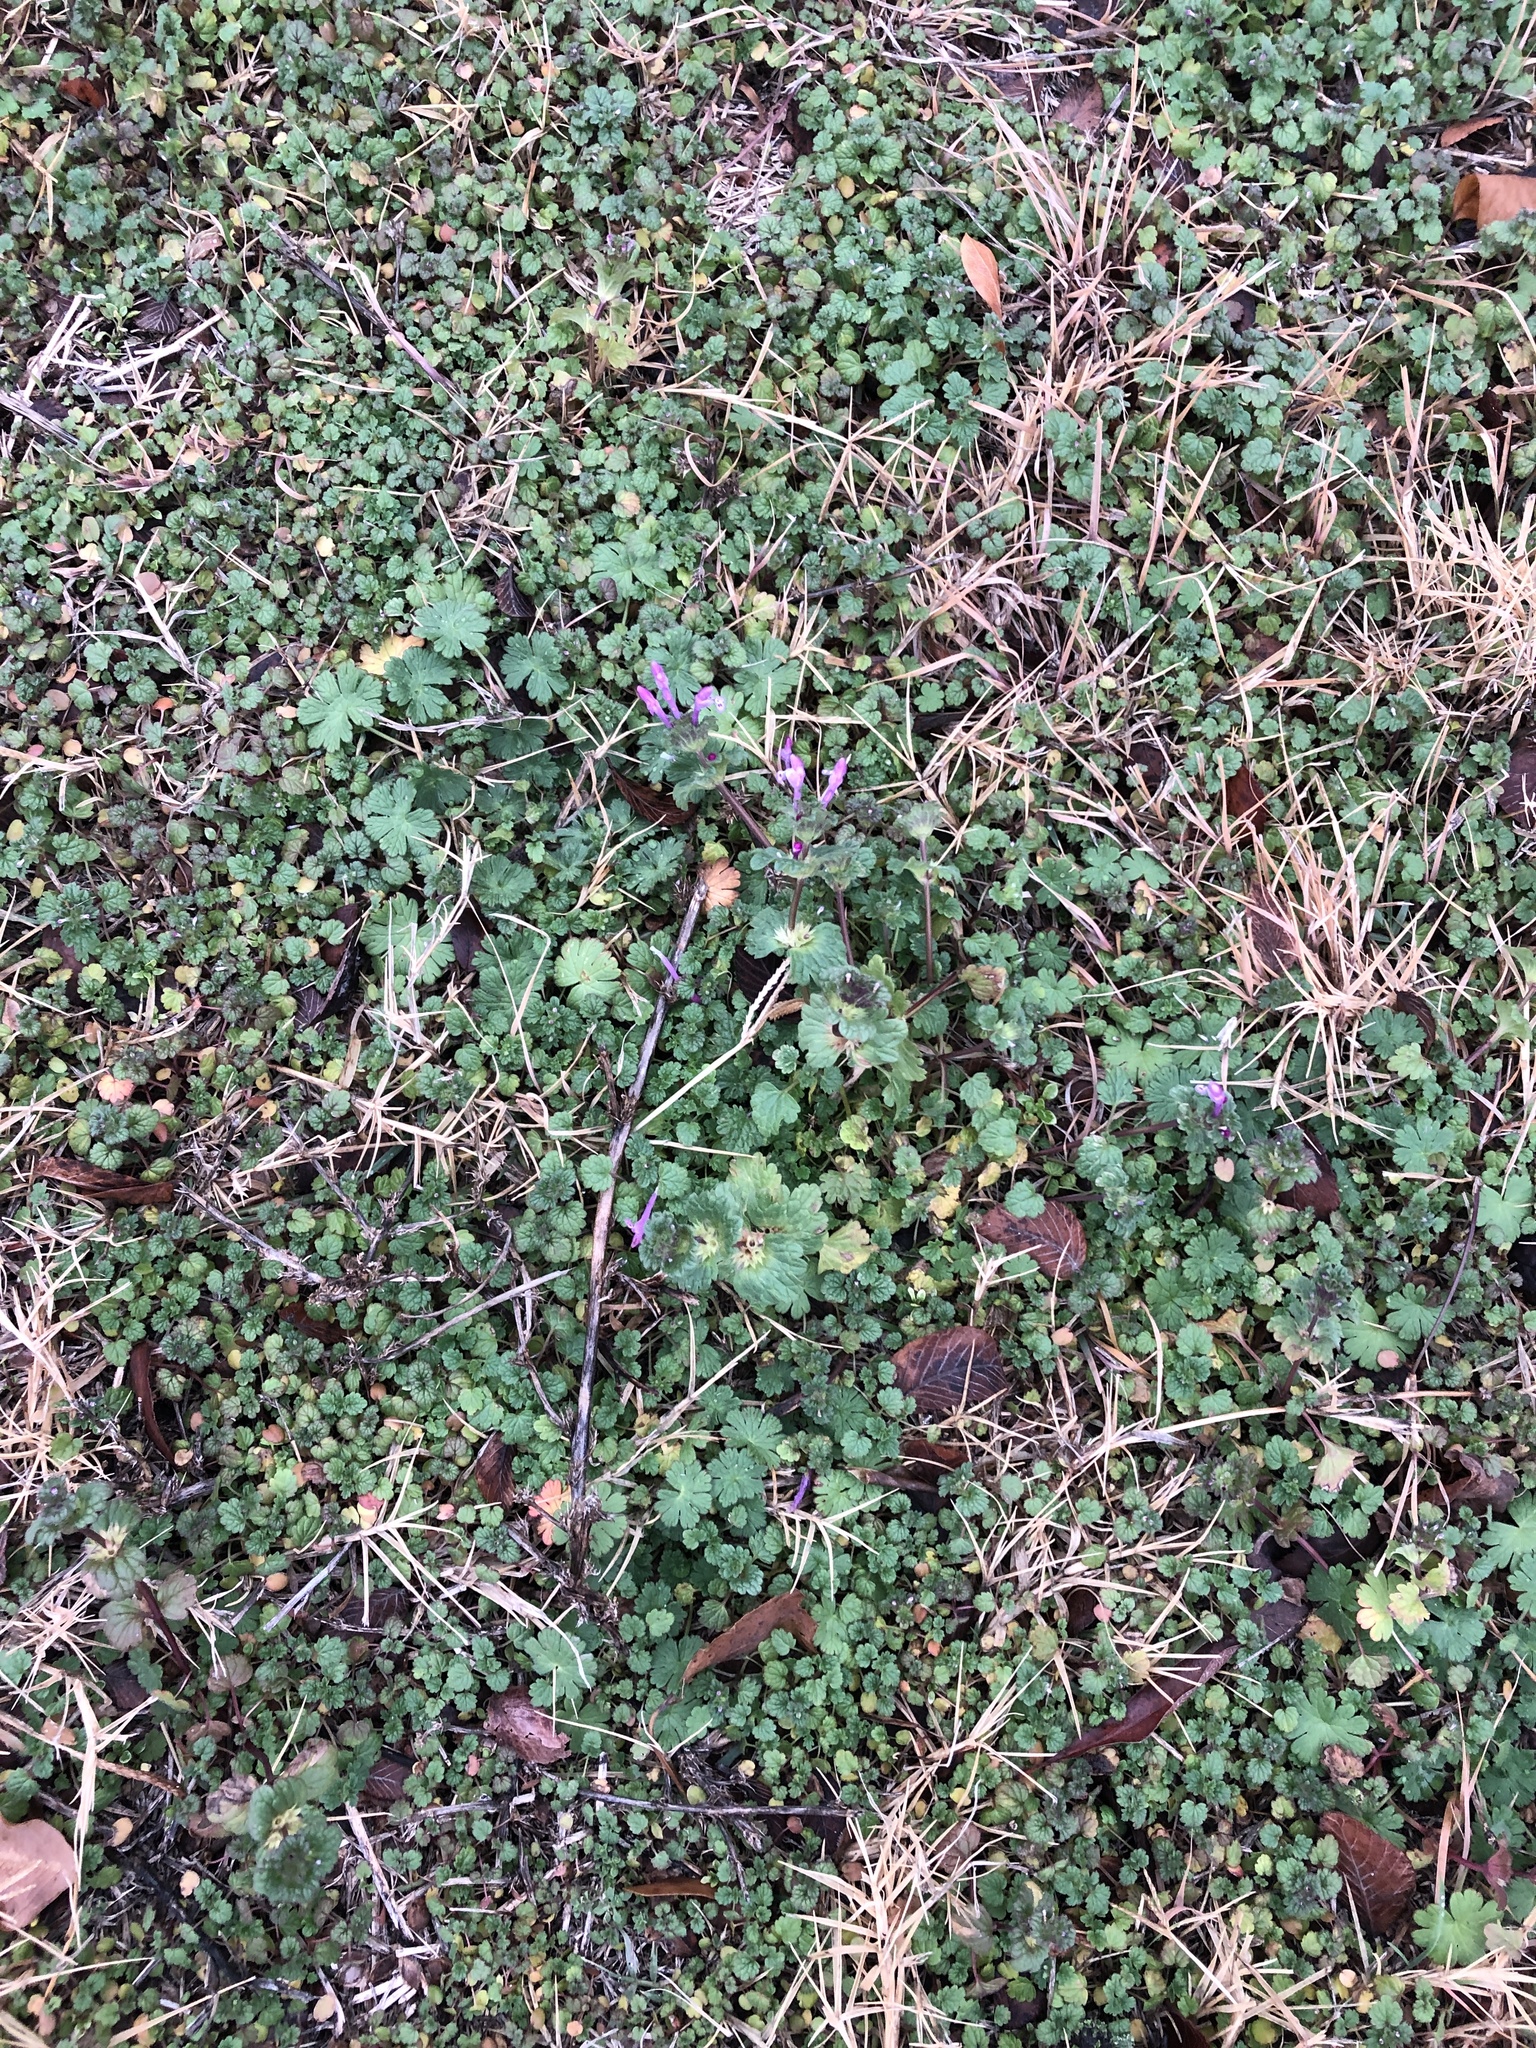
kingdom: Plantae
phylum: Tracheophyta
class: Magnoliopsida
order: Lamiales
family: Lamiaceae
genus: Lamium
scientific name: Lamium amplexicaule
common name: Henbit dead-nettle
